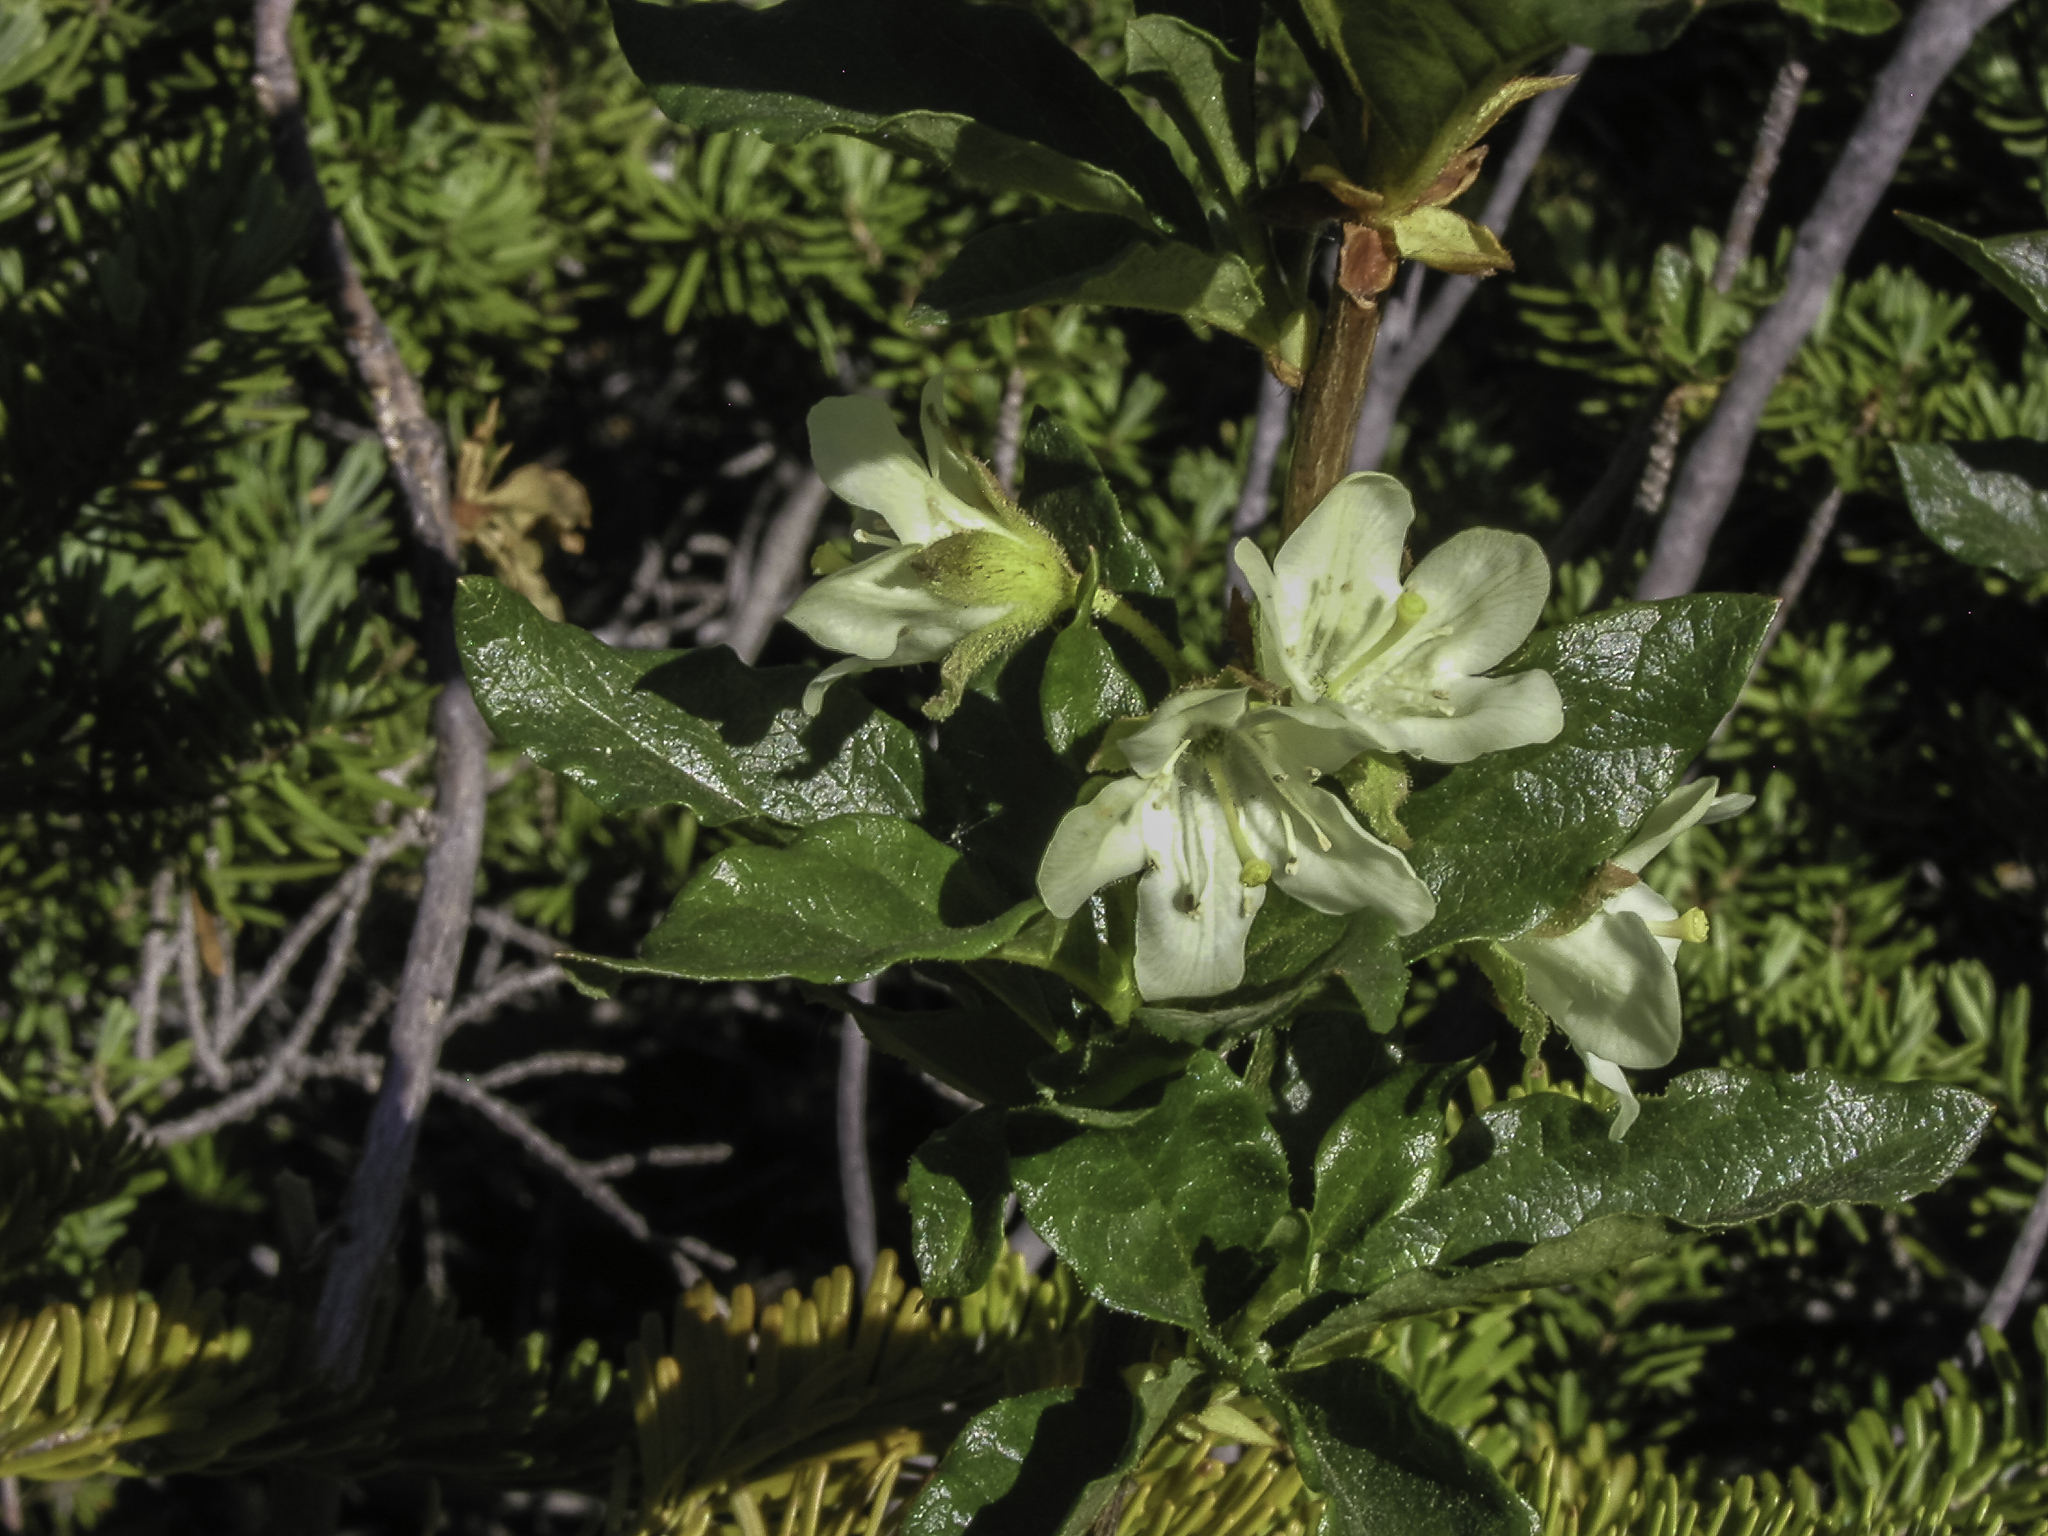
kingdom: Plantae
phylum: Tracheophyta
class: Magnoliopsida
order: Ericales
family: Ericaceae
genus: Rhododendron
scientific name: Rhododendron albiflorum
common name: White rhododendron
